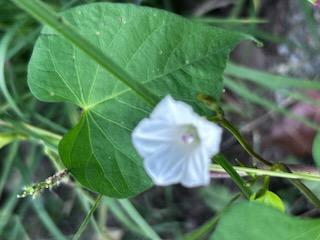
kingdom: Plantae
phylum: Tracheophyta
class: Magnoliopsida
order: Solanales
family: Convolvulaceae
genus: Ipomoea
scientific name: Ipomoea lacunosa
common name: White morning-glory
